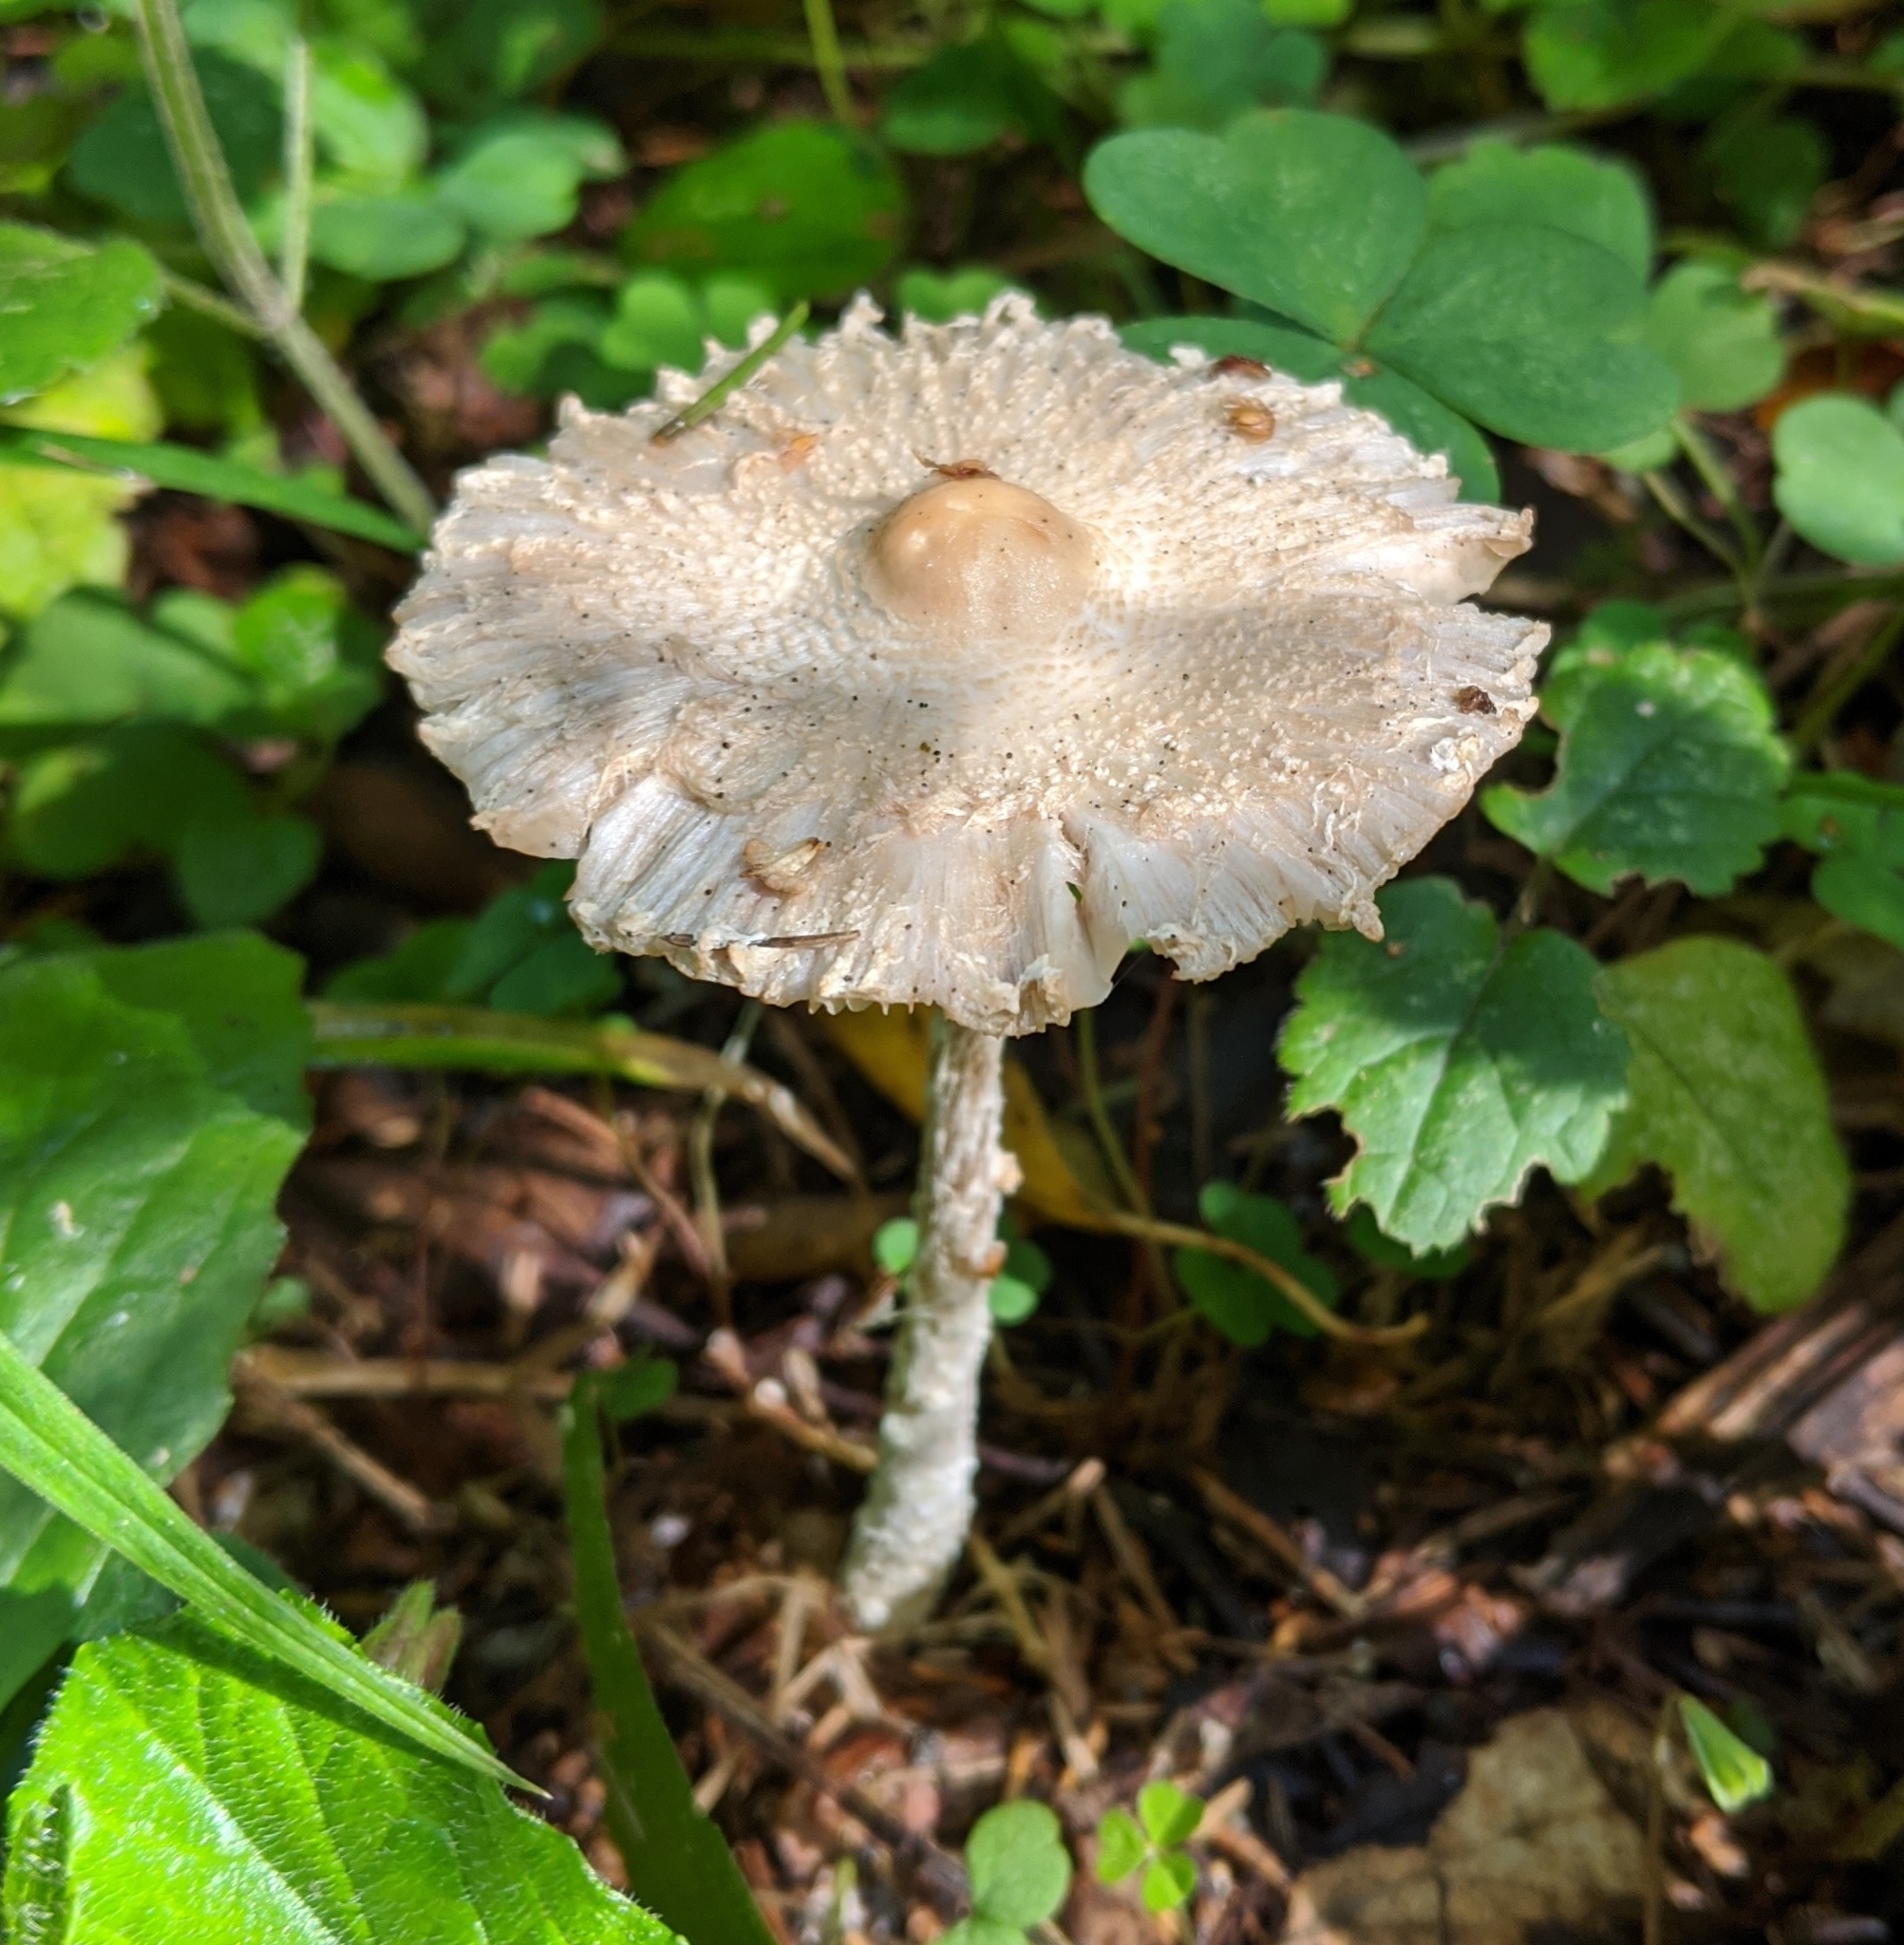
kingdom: Fungi
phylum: Basidiomycota
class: Agaricomycetes
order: Agaricales
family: Agaricaceae
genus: Lepiota
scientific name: Lepiota clypeolaria
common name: Shield dapperling
